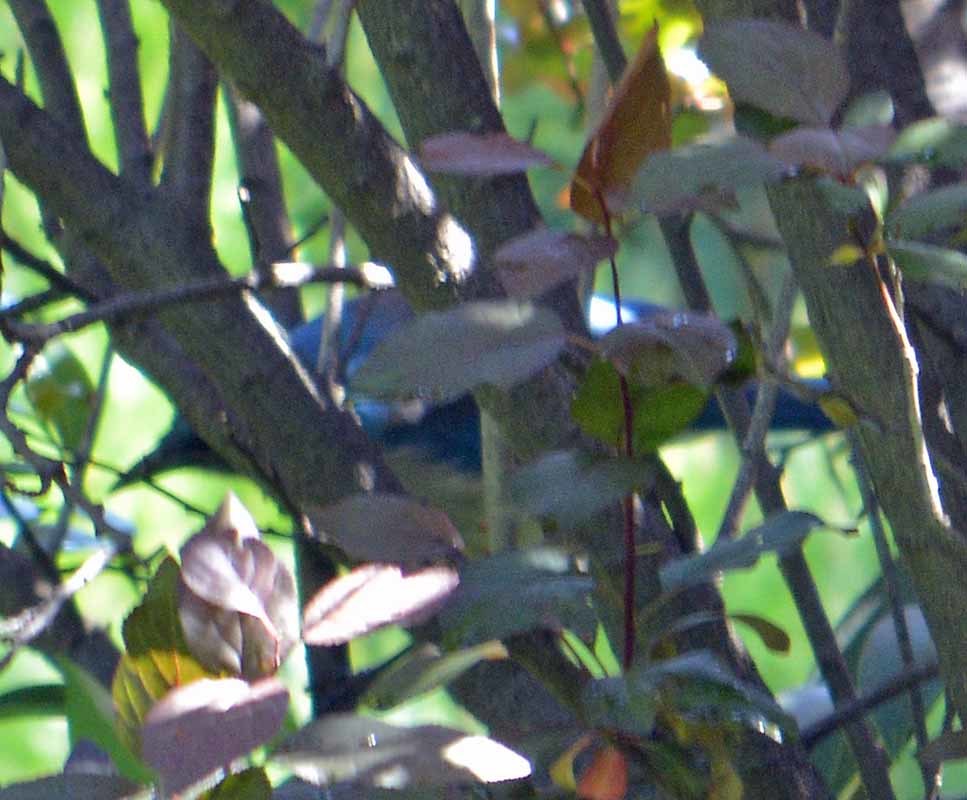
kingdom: Animalia
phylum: Chordata
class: Aves
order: Passeriformes
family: Corvidae
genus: Aphelocoma
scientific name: Aphelocoma ultramarina
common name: Transvolcanic jay
